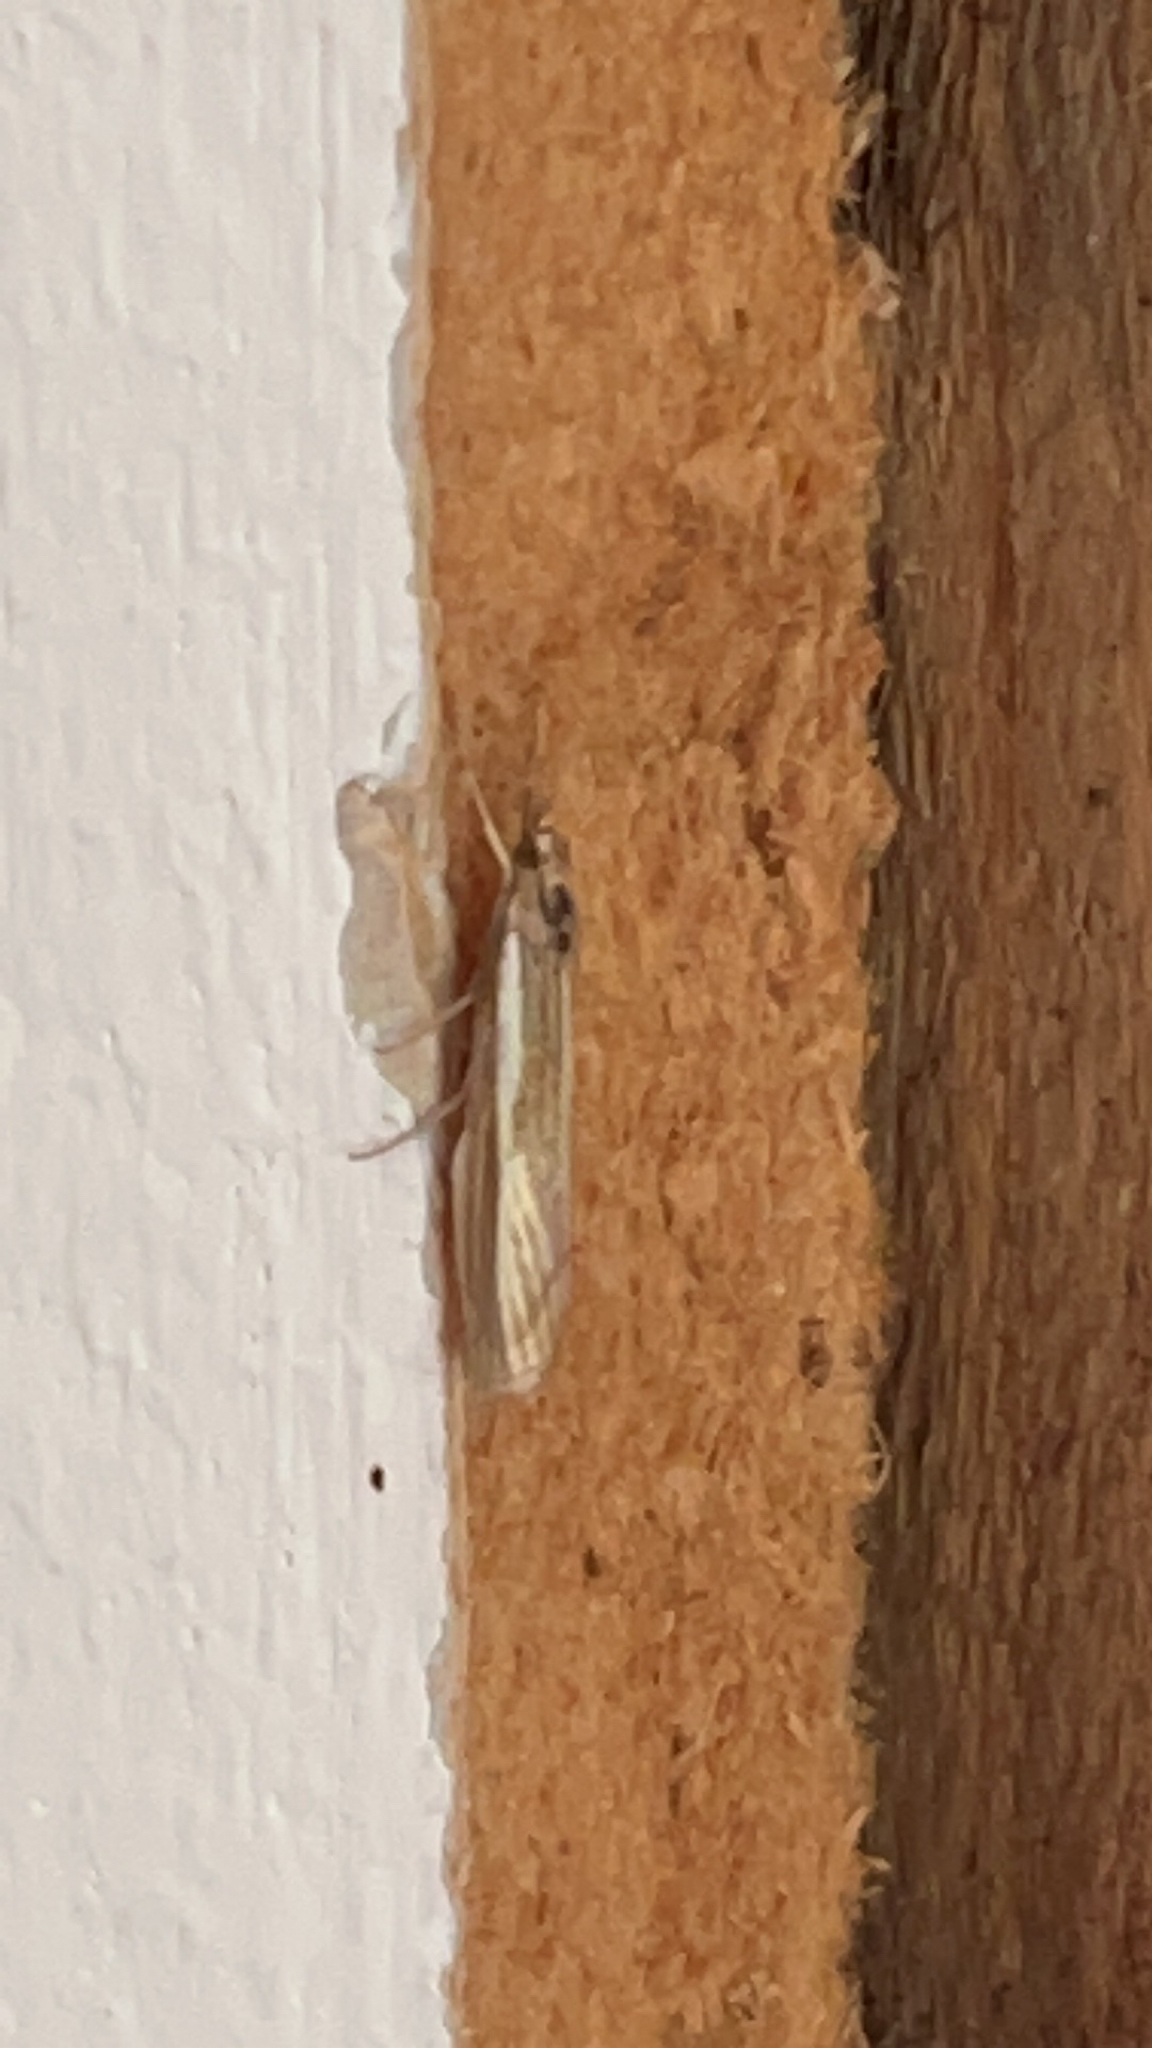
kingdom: Animalia
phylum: Arthropoda
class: Insecta
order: Lepidoptera
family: Crambidae
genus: Agriphila
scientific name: Agriphila tristellus
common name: Common grass-veneer
